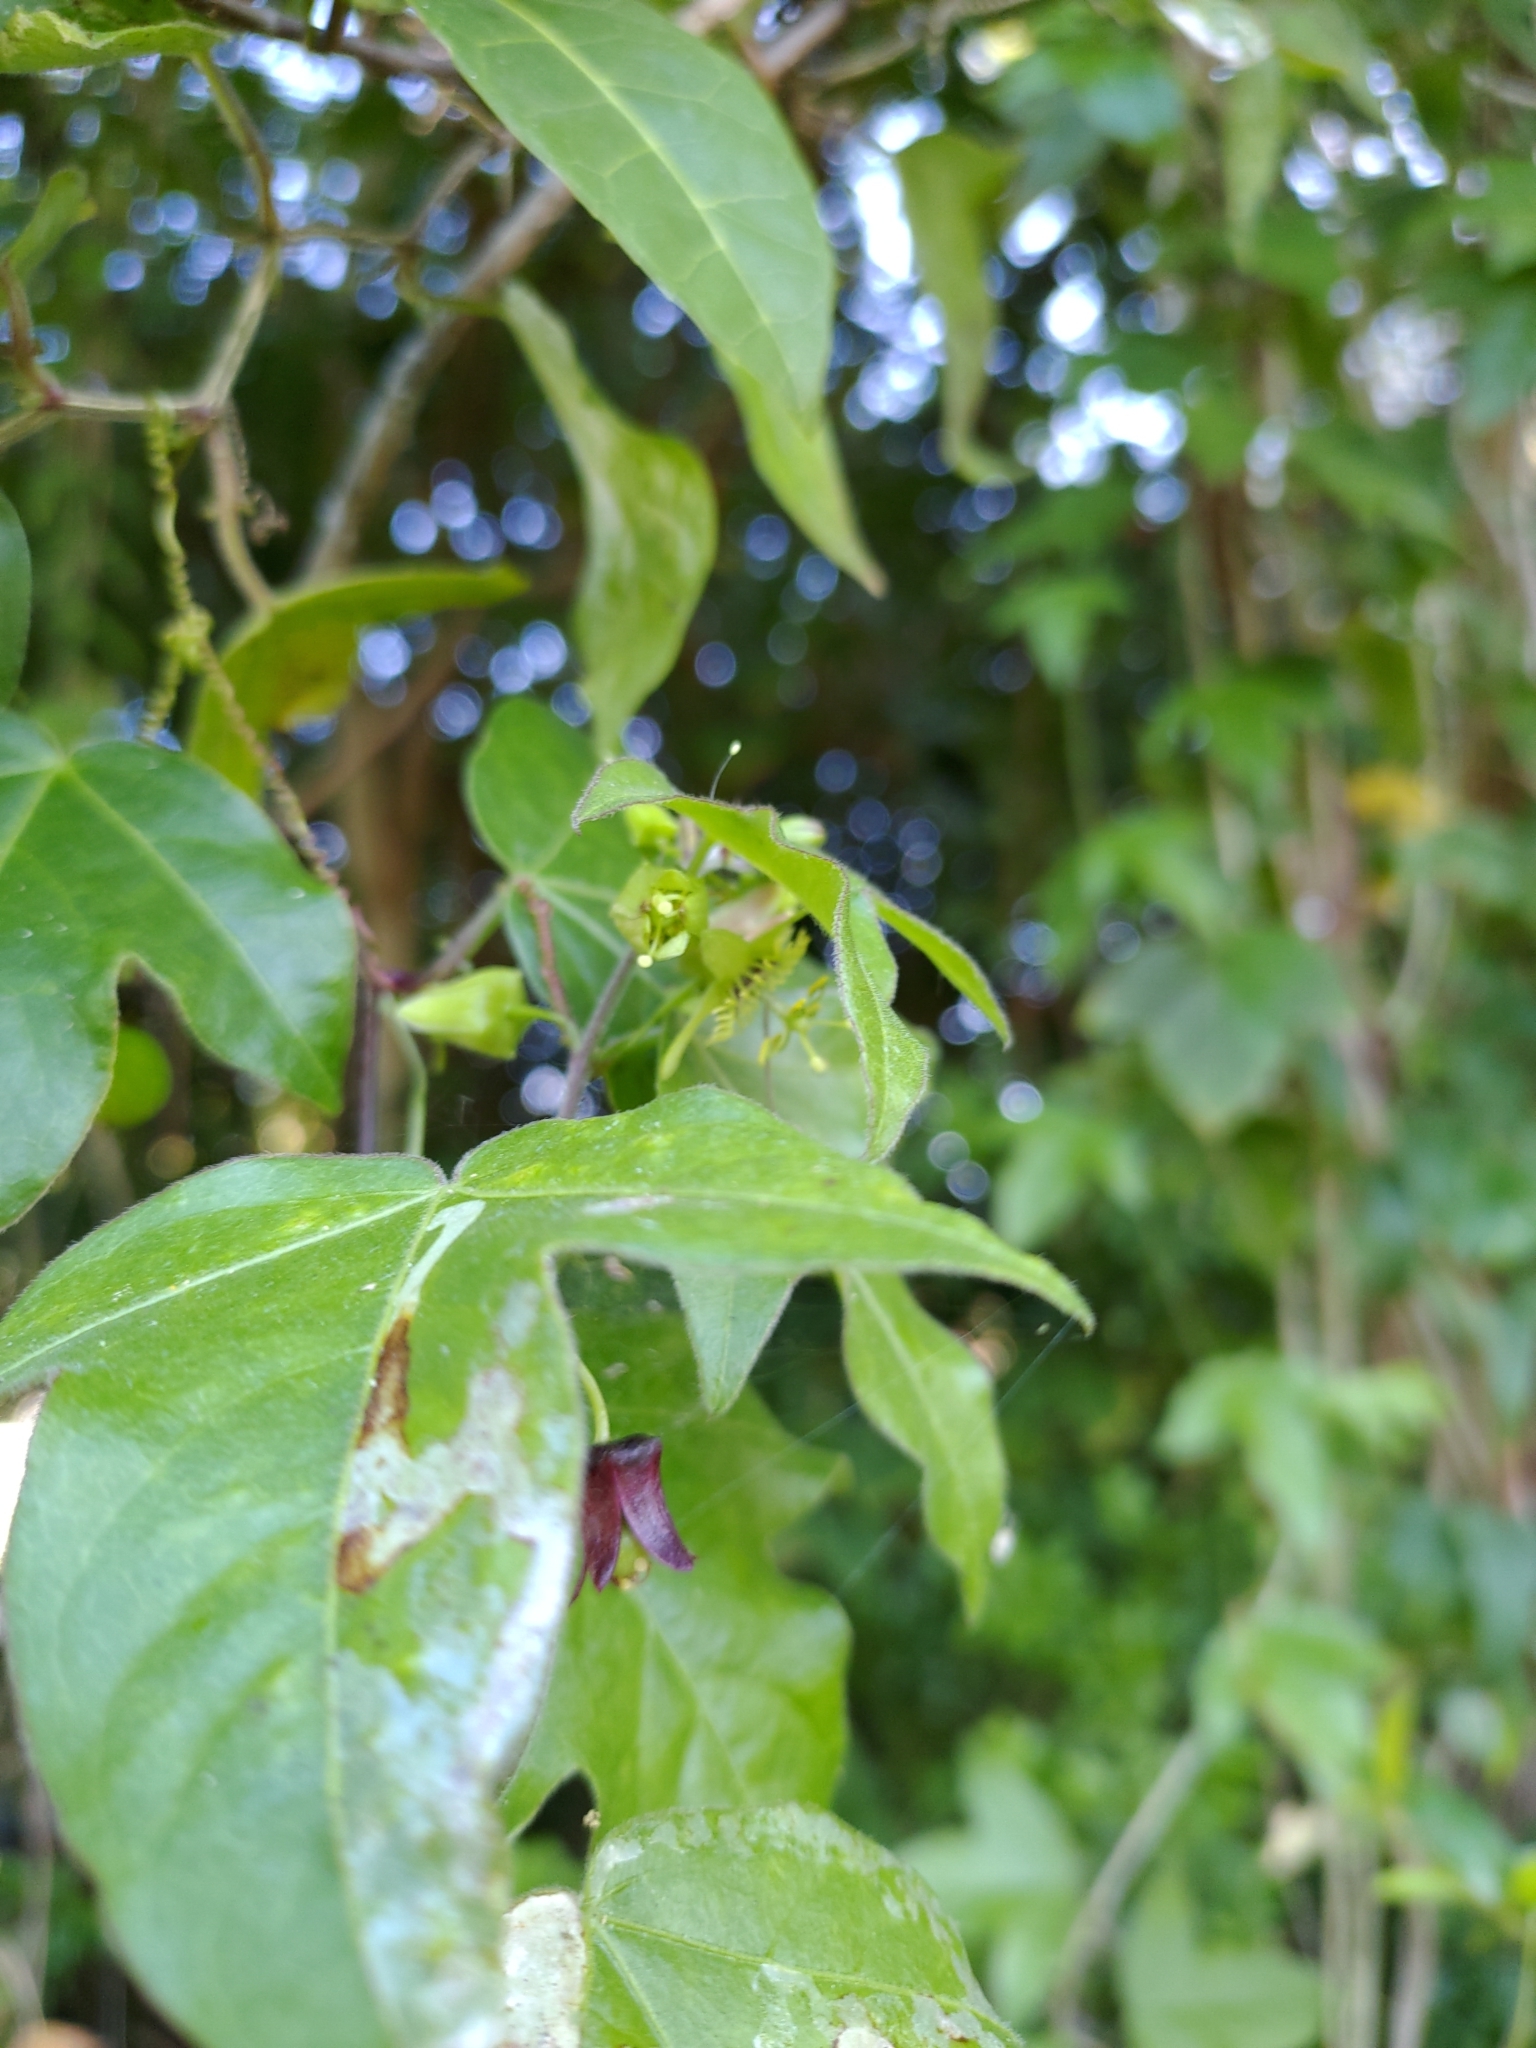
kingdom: Plantae
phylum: Tracheophyta
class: Magnoliopsida
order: Malpighiales
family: Passifloraceae
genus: Passiflora
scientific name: Passiflora suberosa
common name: Wild passionfruit
